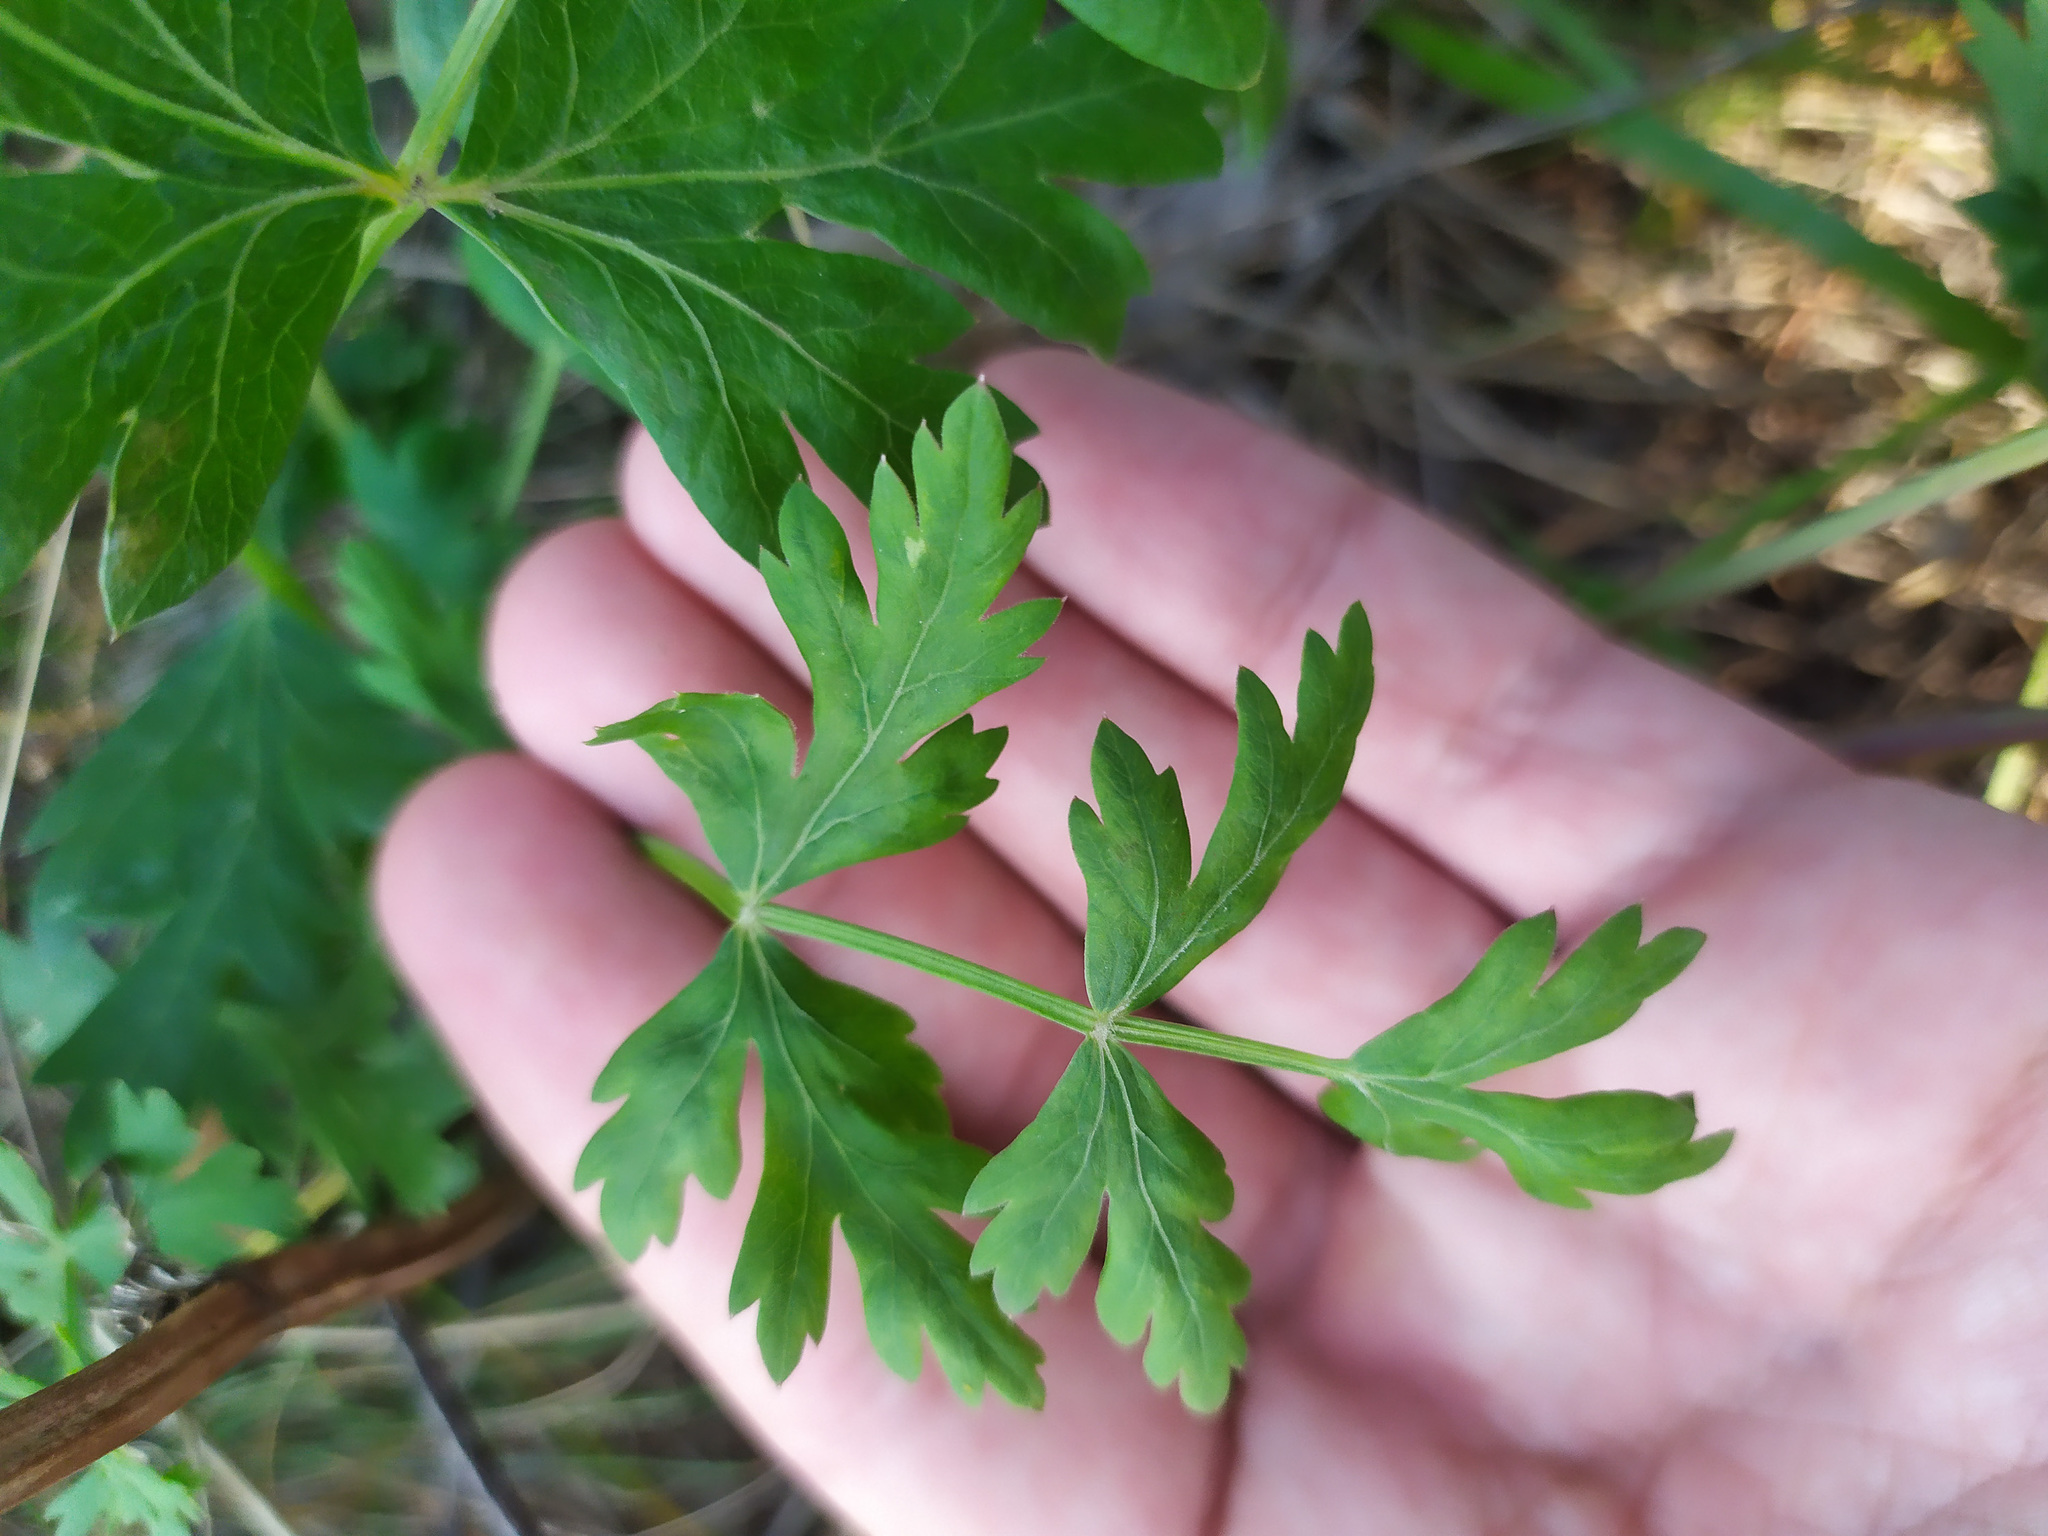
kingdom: Plantae
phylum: Tracheophyta
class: Magnoliopsida
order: Apiales
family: Apiaceae
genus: Seseli
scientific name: Seseli krylovii
